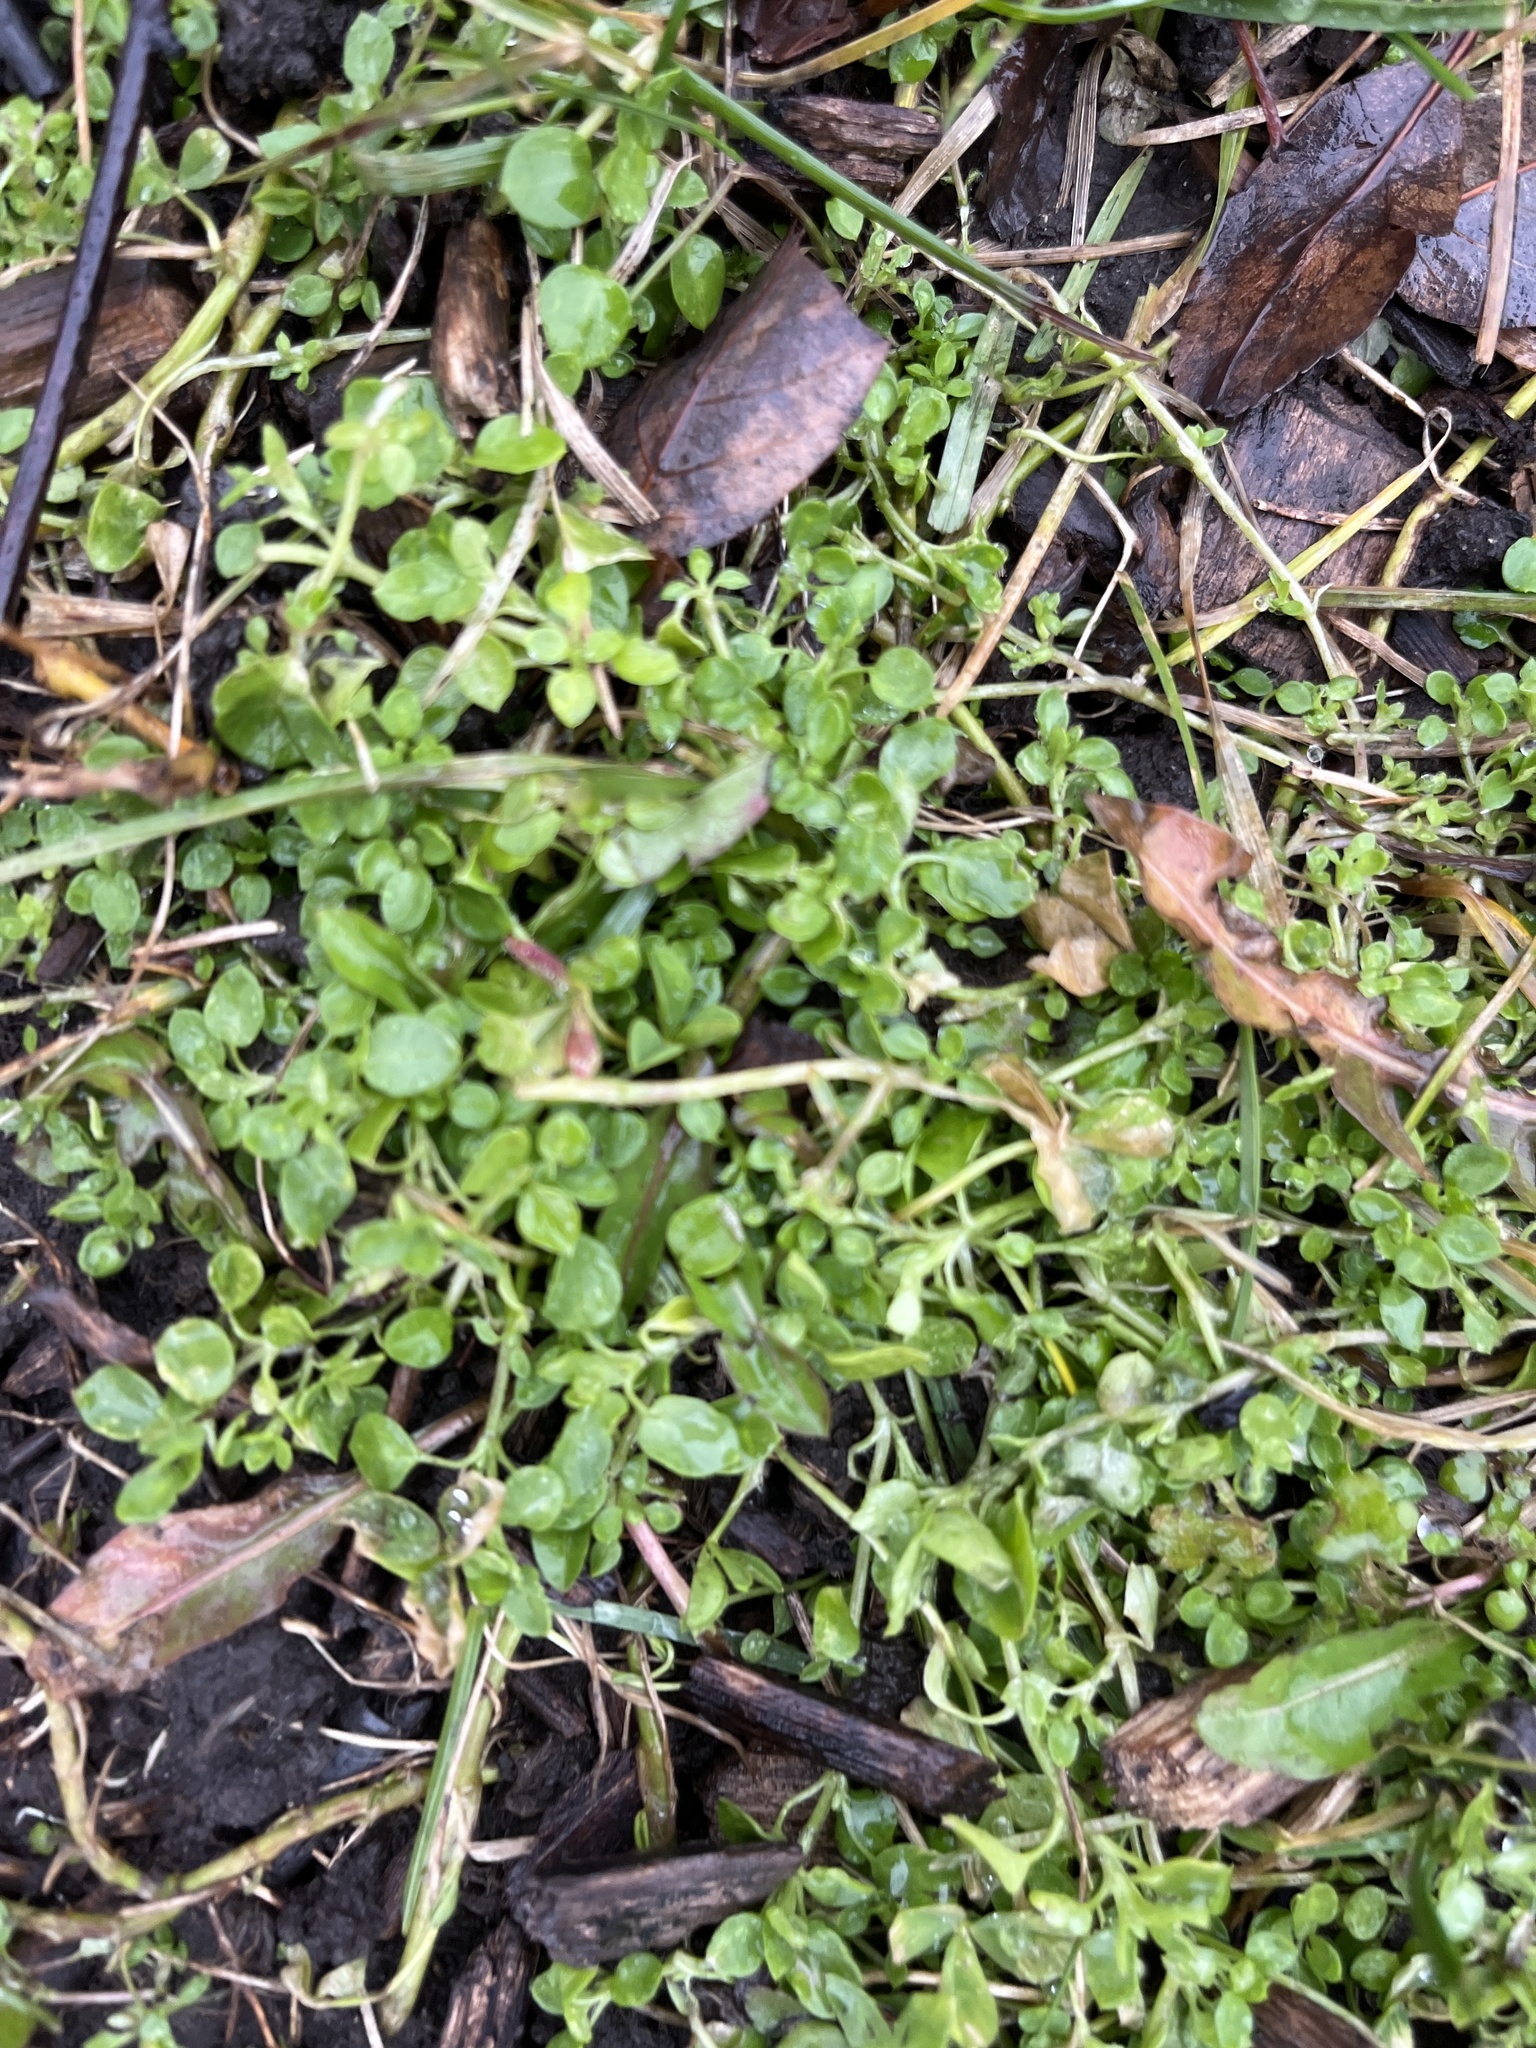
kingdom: Plantae
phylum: Tracheophyta
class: Magnoliopsida
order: Caryophyllales
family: Caryophyllaceae
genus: Stellaria
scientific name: Stellaria media
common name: Common chickweed
